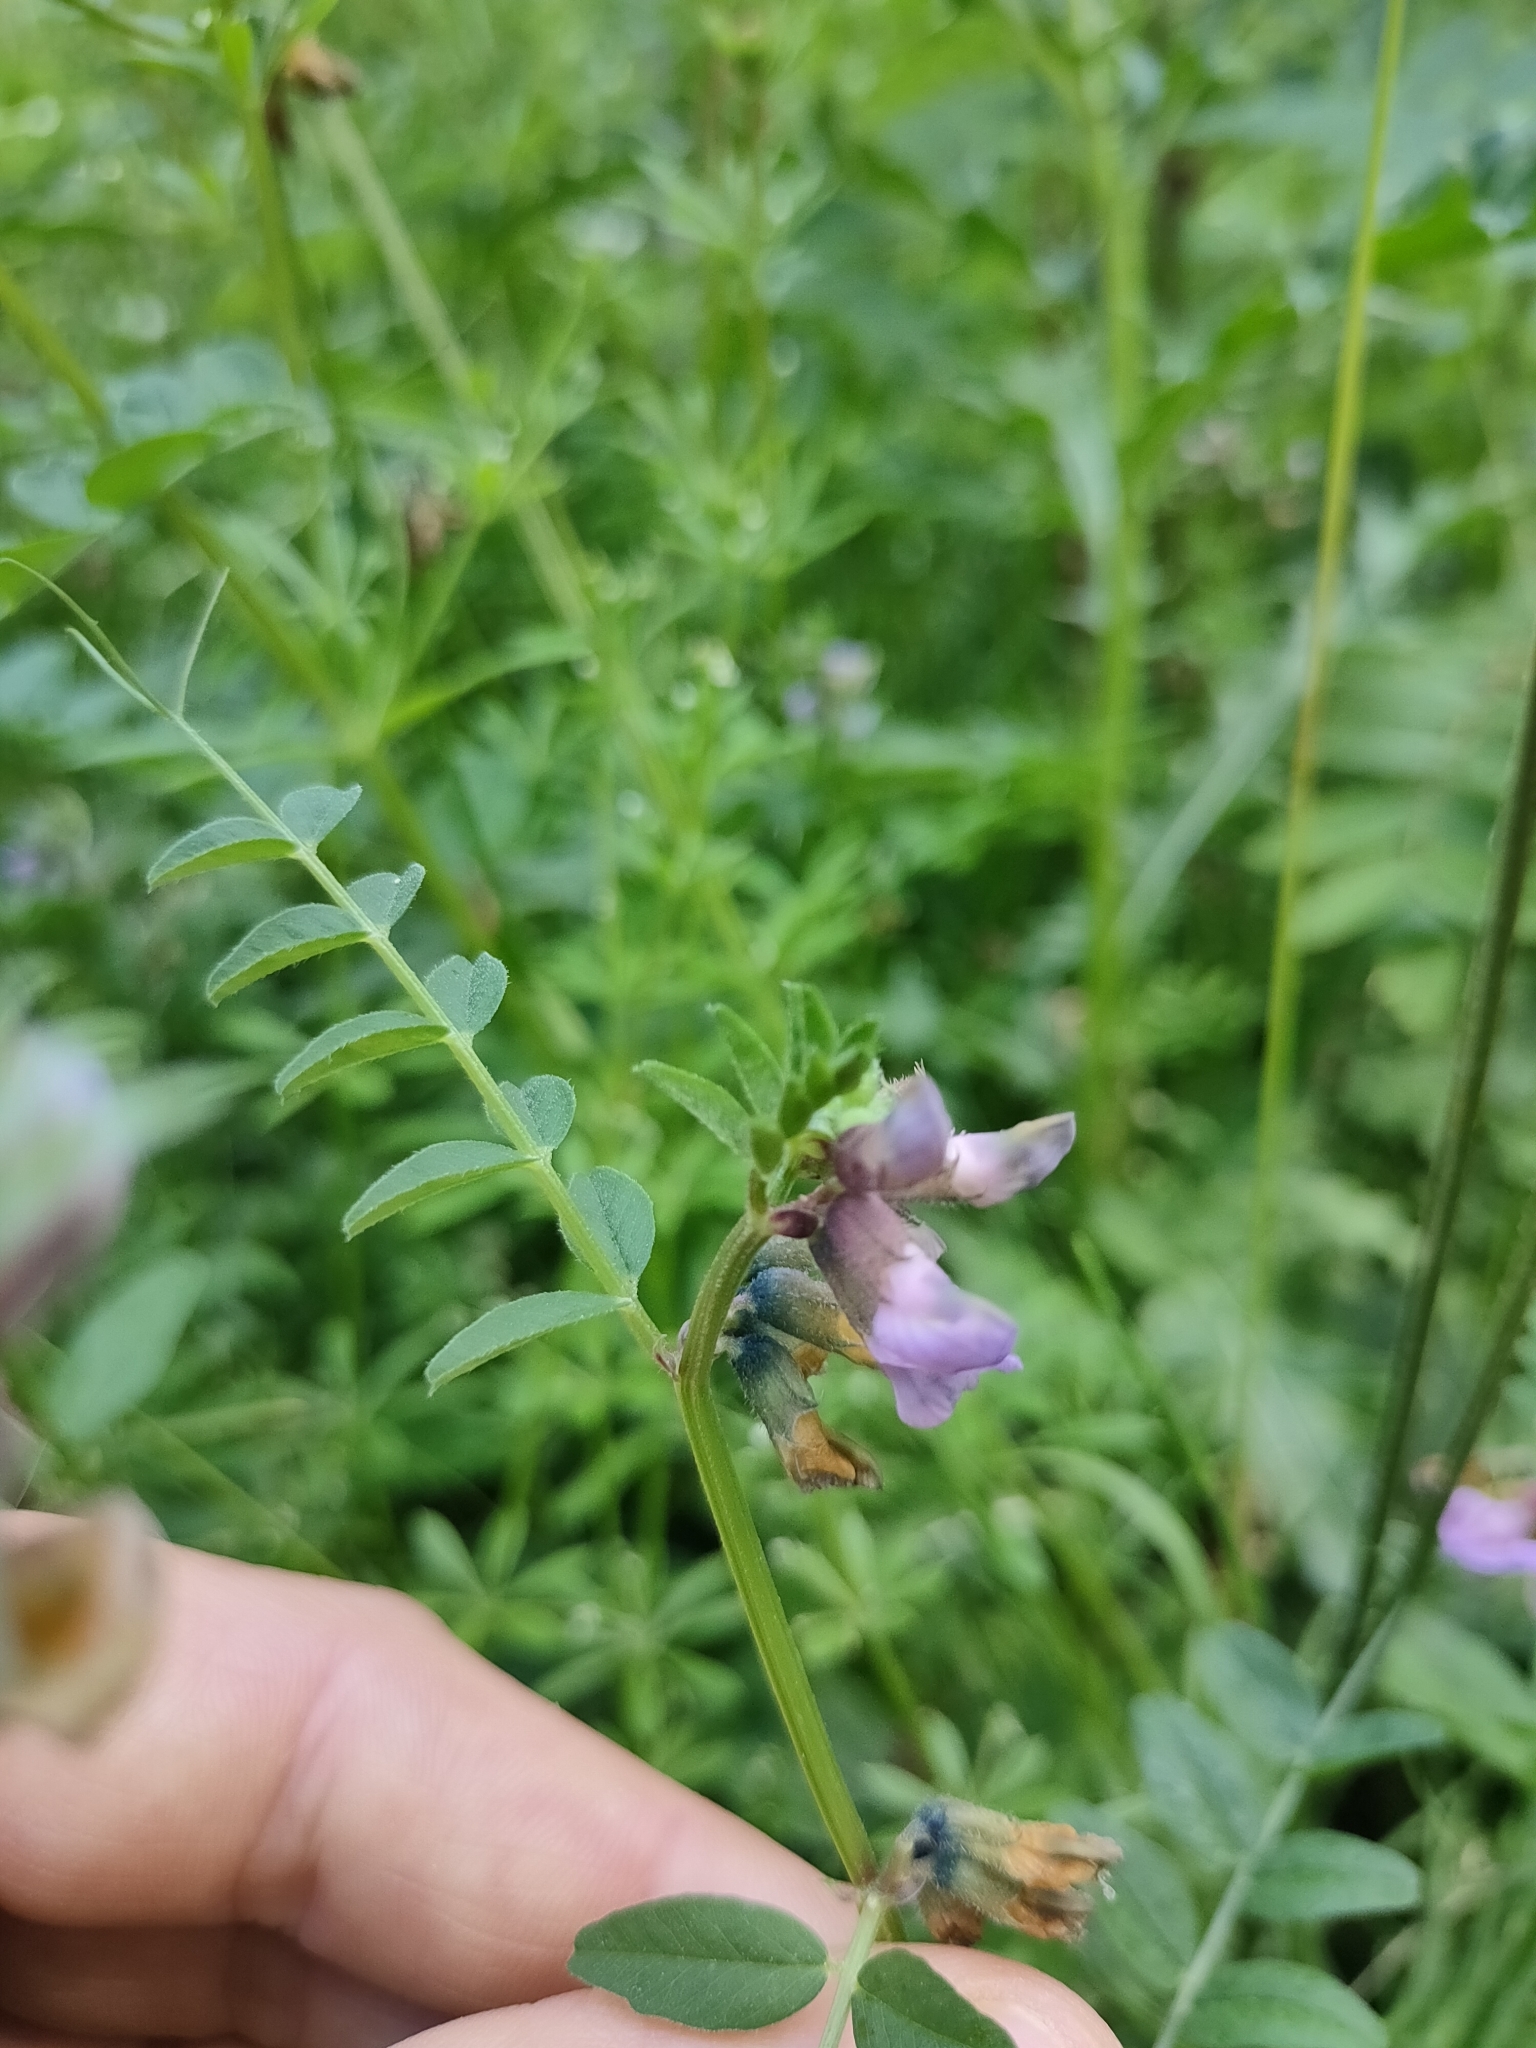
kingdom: Plantae
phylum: Tracheophyta
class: Magnoliopsida
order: Fabales
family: Fabaceae
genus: Vicia
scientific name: Vicia sepium
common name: Bush vetch
